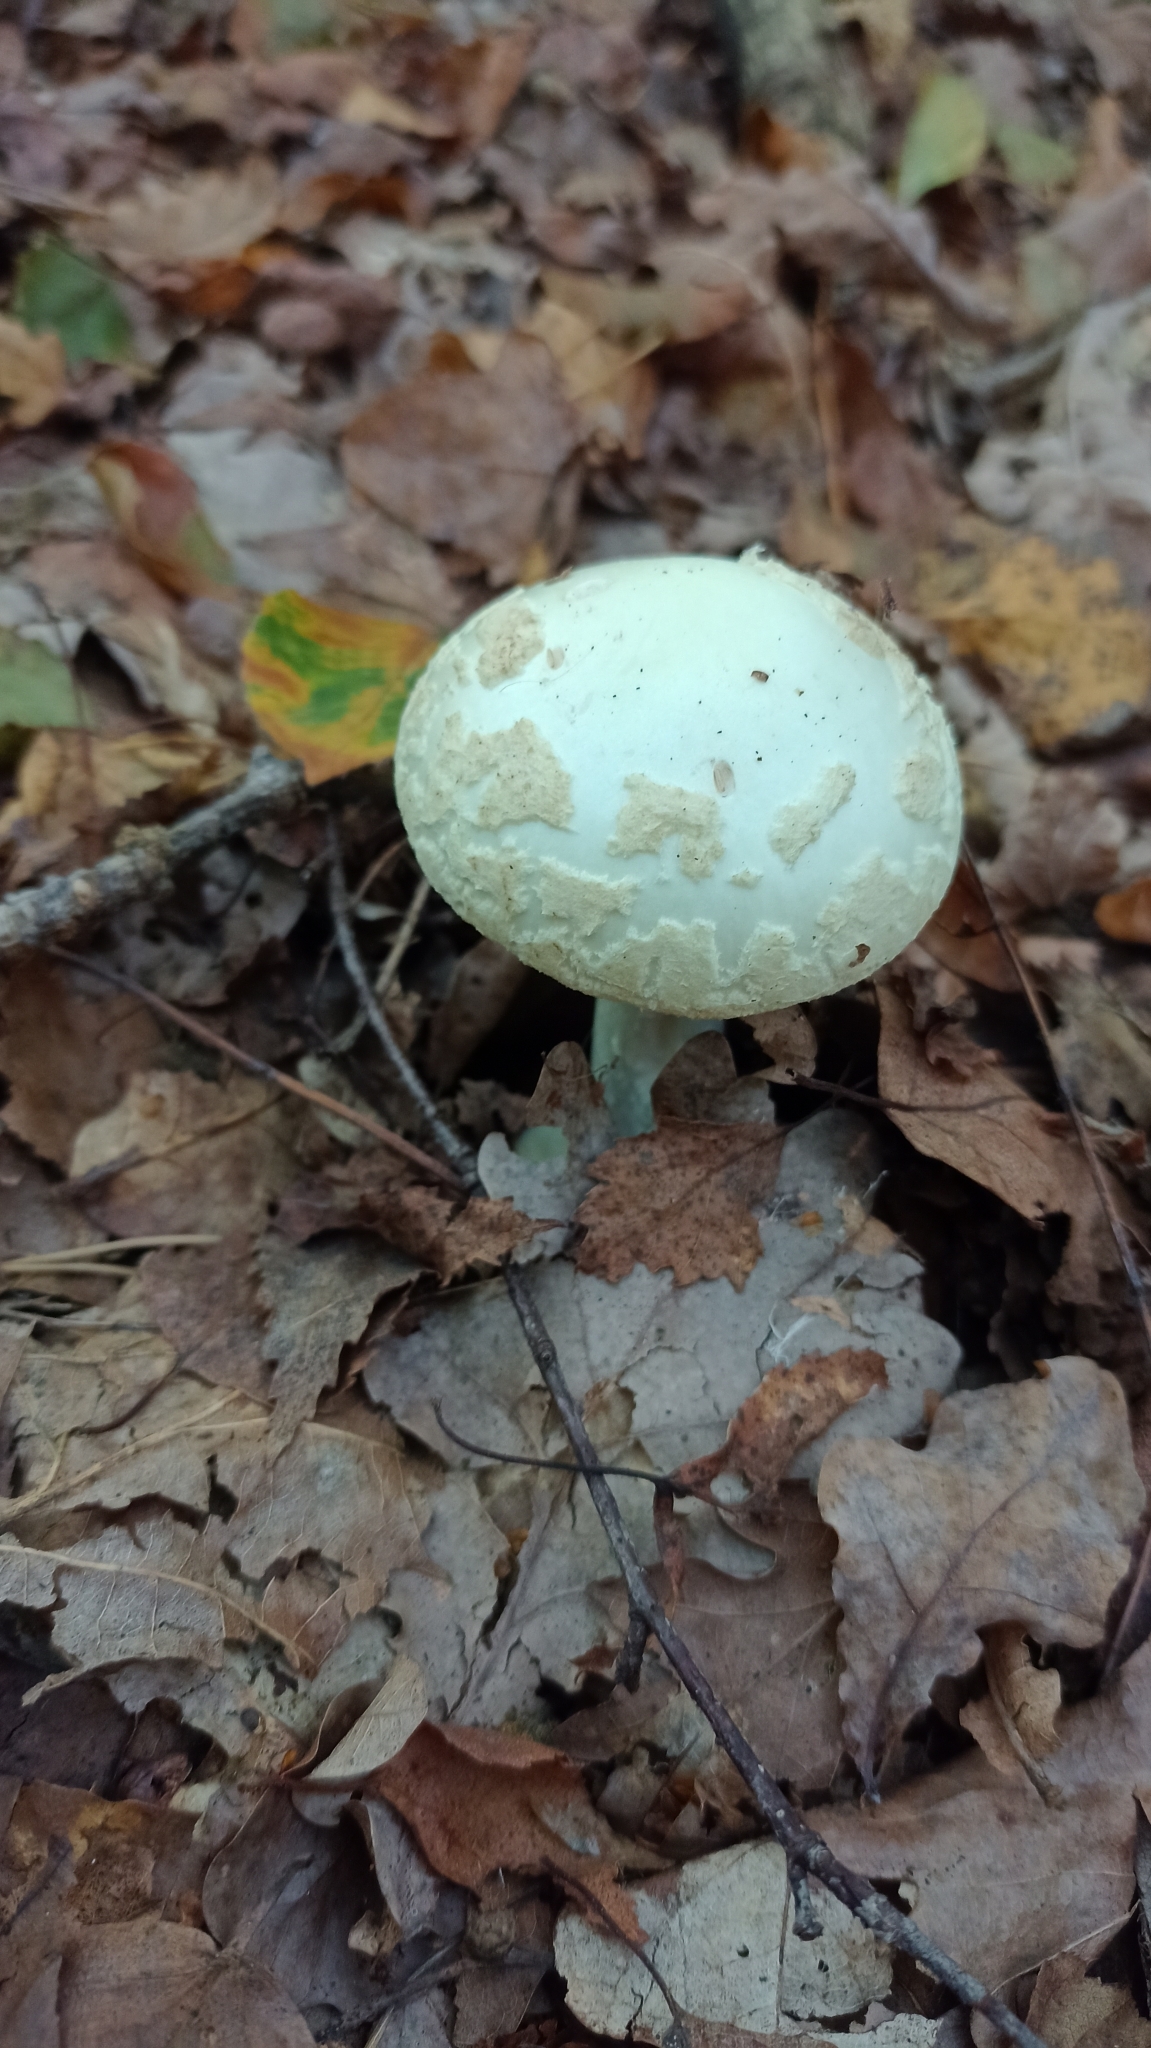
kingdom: Fungi
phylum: Basidiomycota
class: Agaricomycetes
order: Agaricales
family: Amanitaceae
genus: Amanita
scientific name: Amanita citrina
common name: False death-cap
